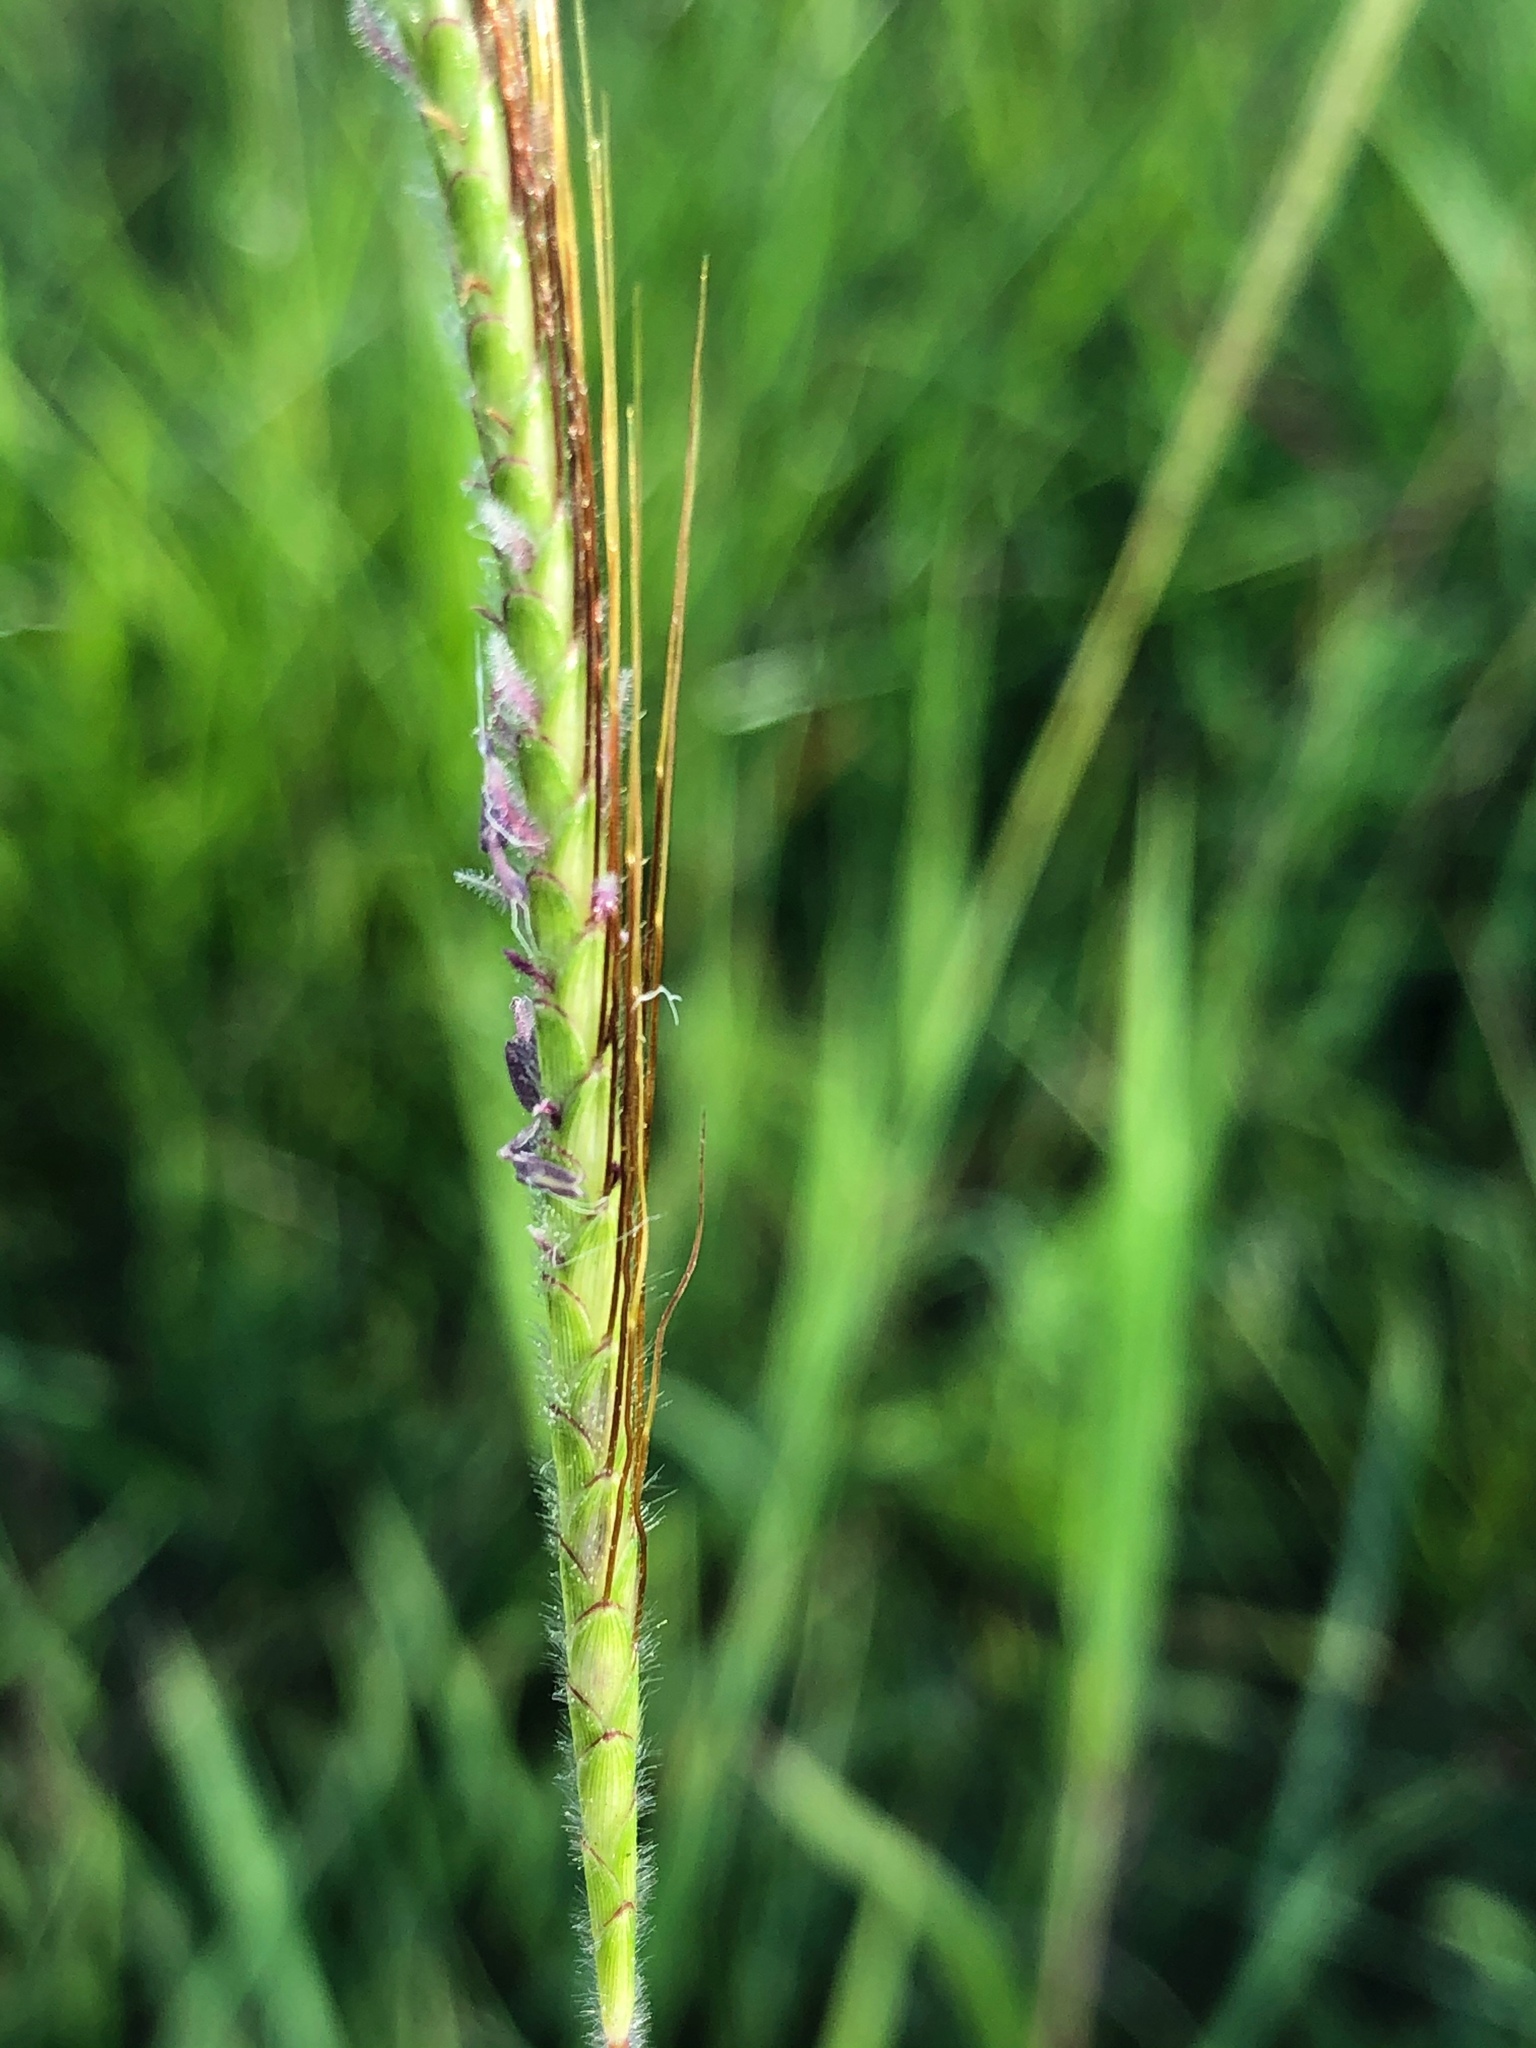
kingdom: Plantae
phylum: Tracheophyta
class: Liliopsida
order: Poales
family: Poaceae
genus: Dichanthium
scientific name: Dichanthium aristatum
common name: Angleton bluestem
